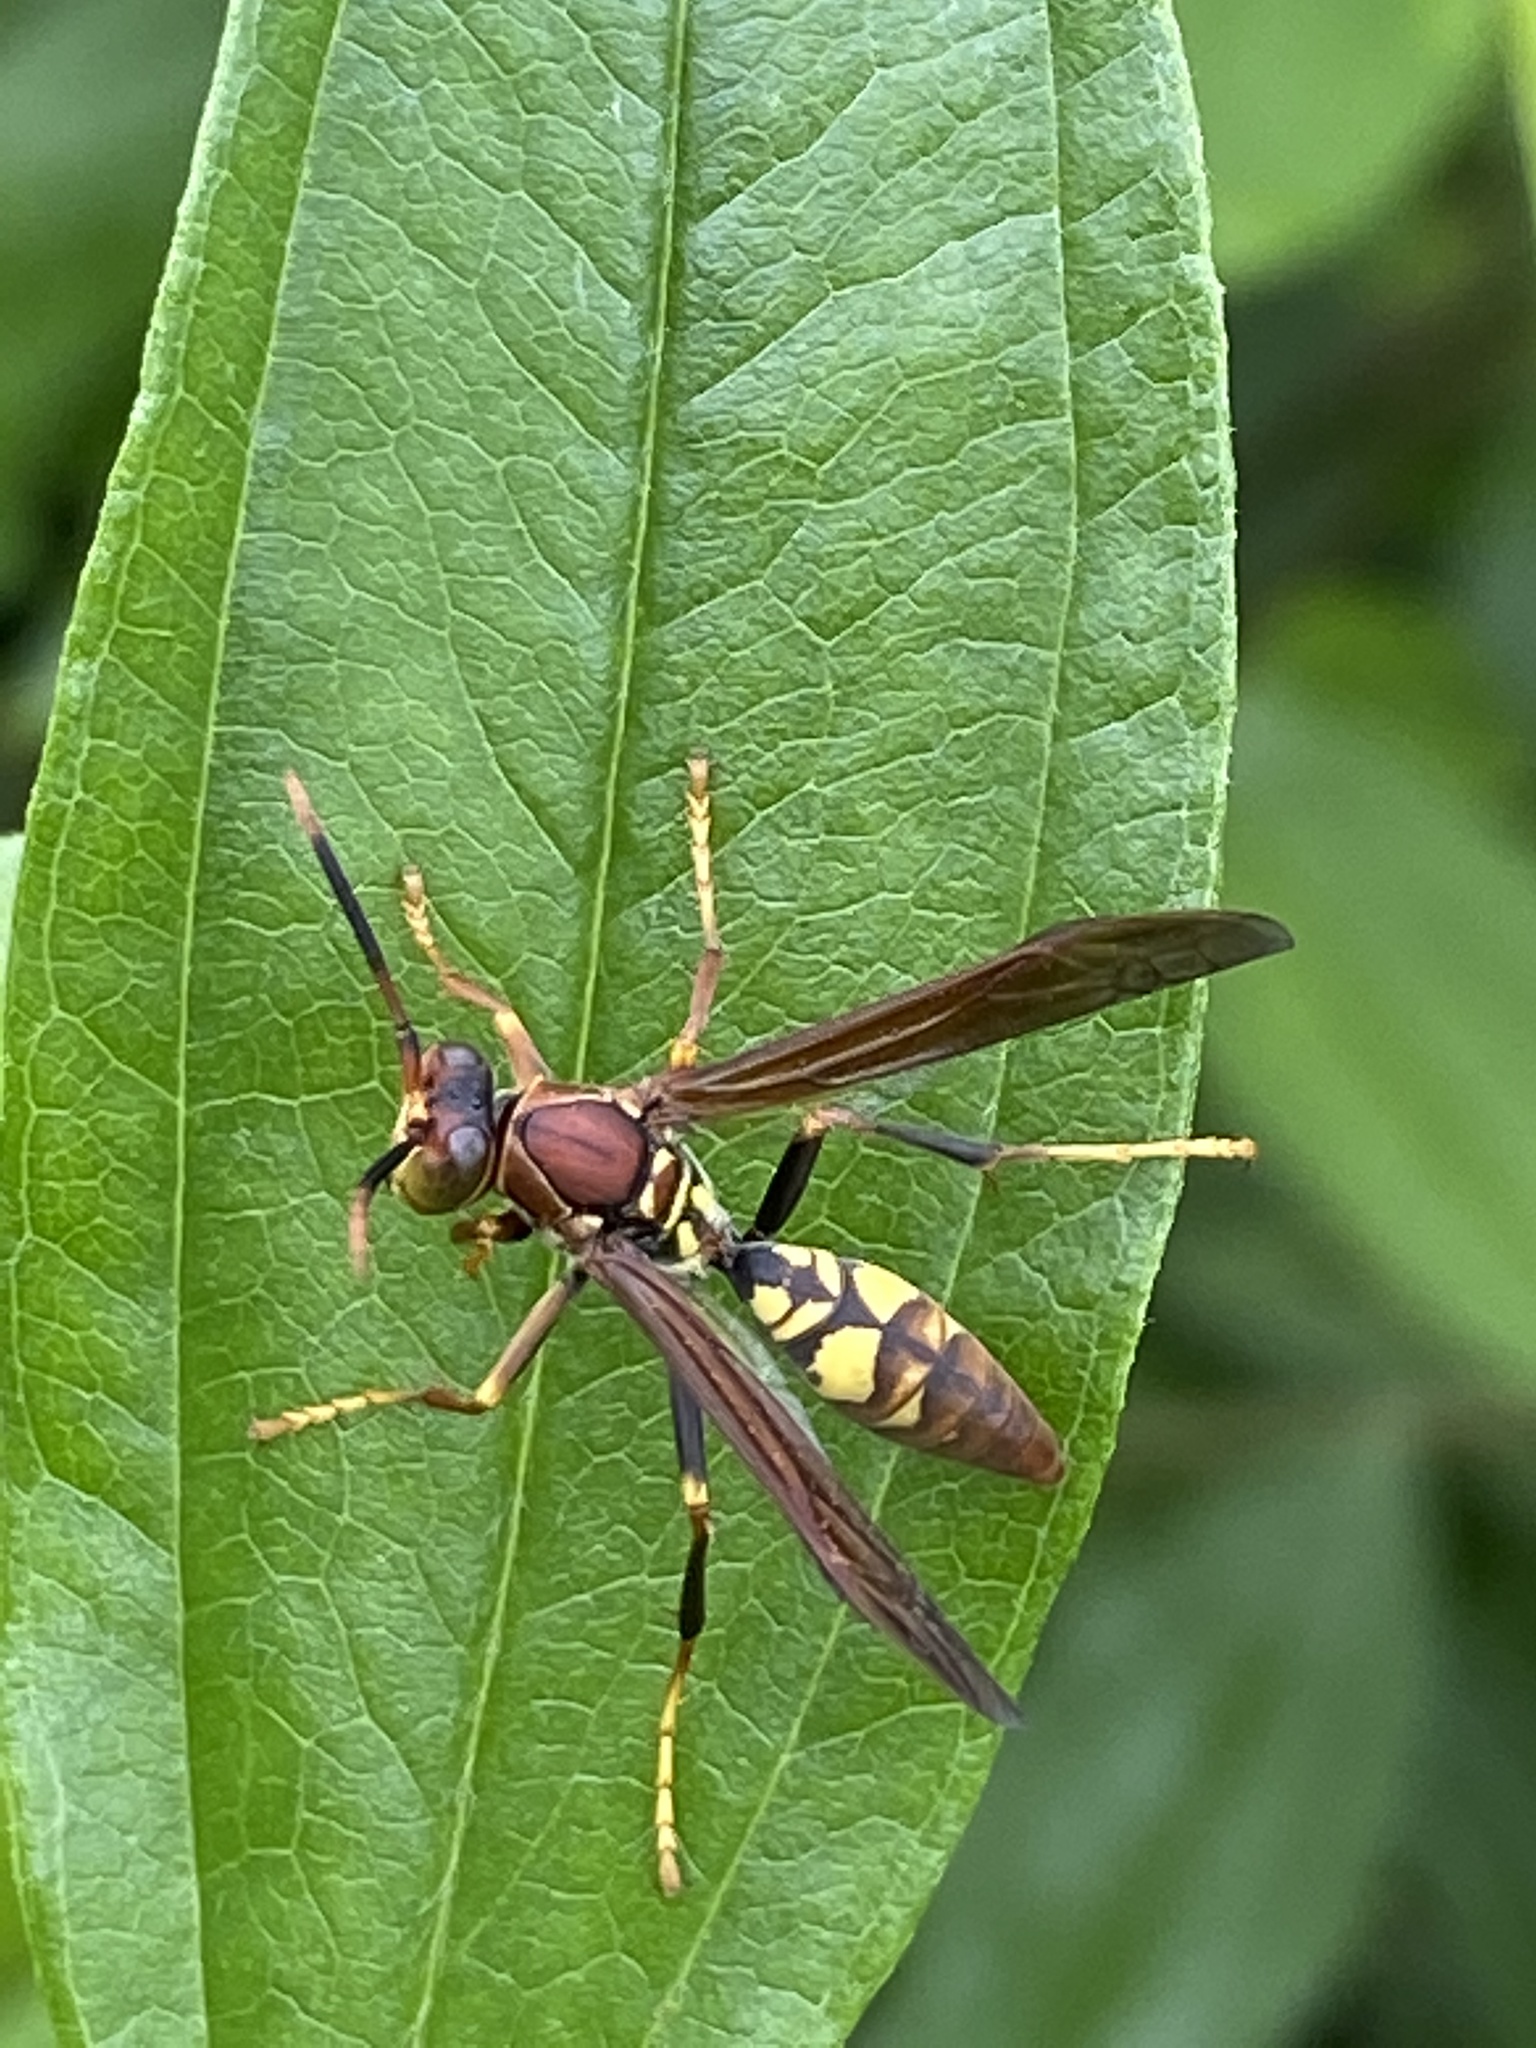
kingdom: Animalia
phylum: Arthropoda
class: Insecta
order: Hymenoptera
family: Eumenidae
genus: Polistes
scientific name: Polistes versicolor
